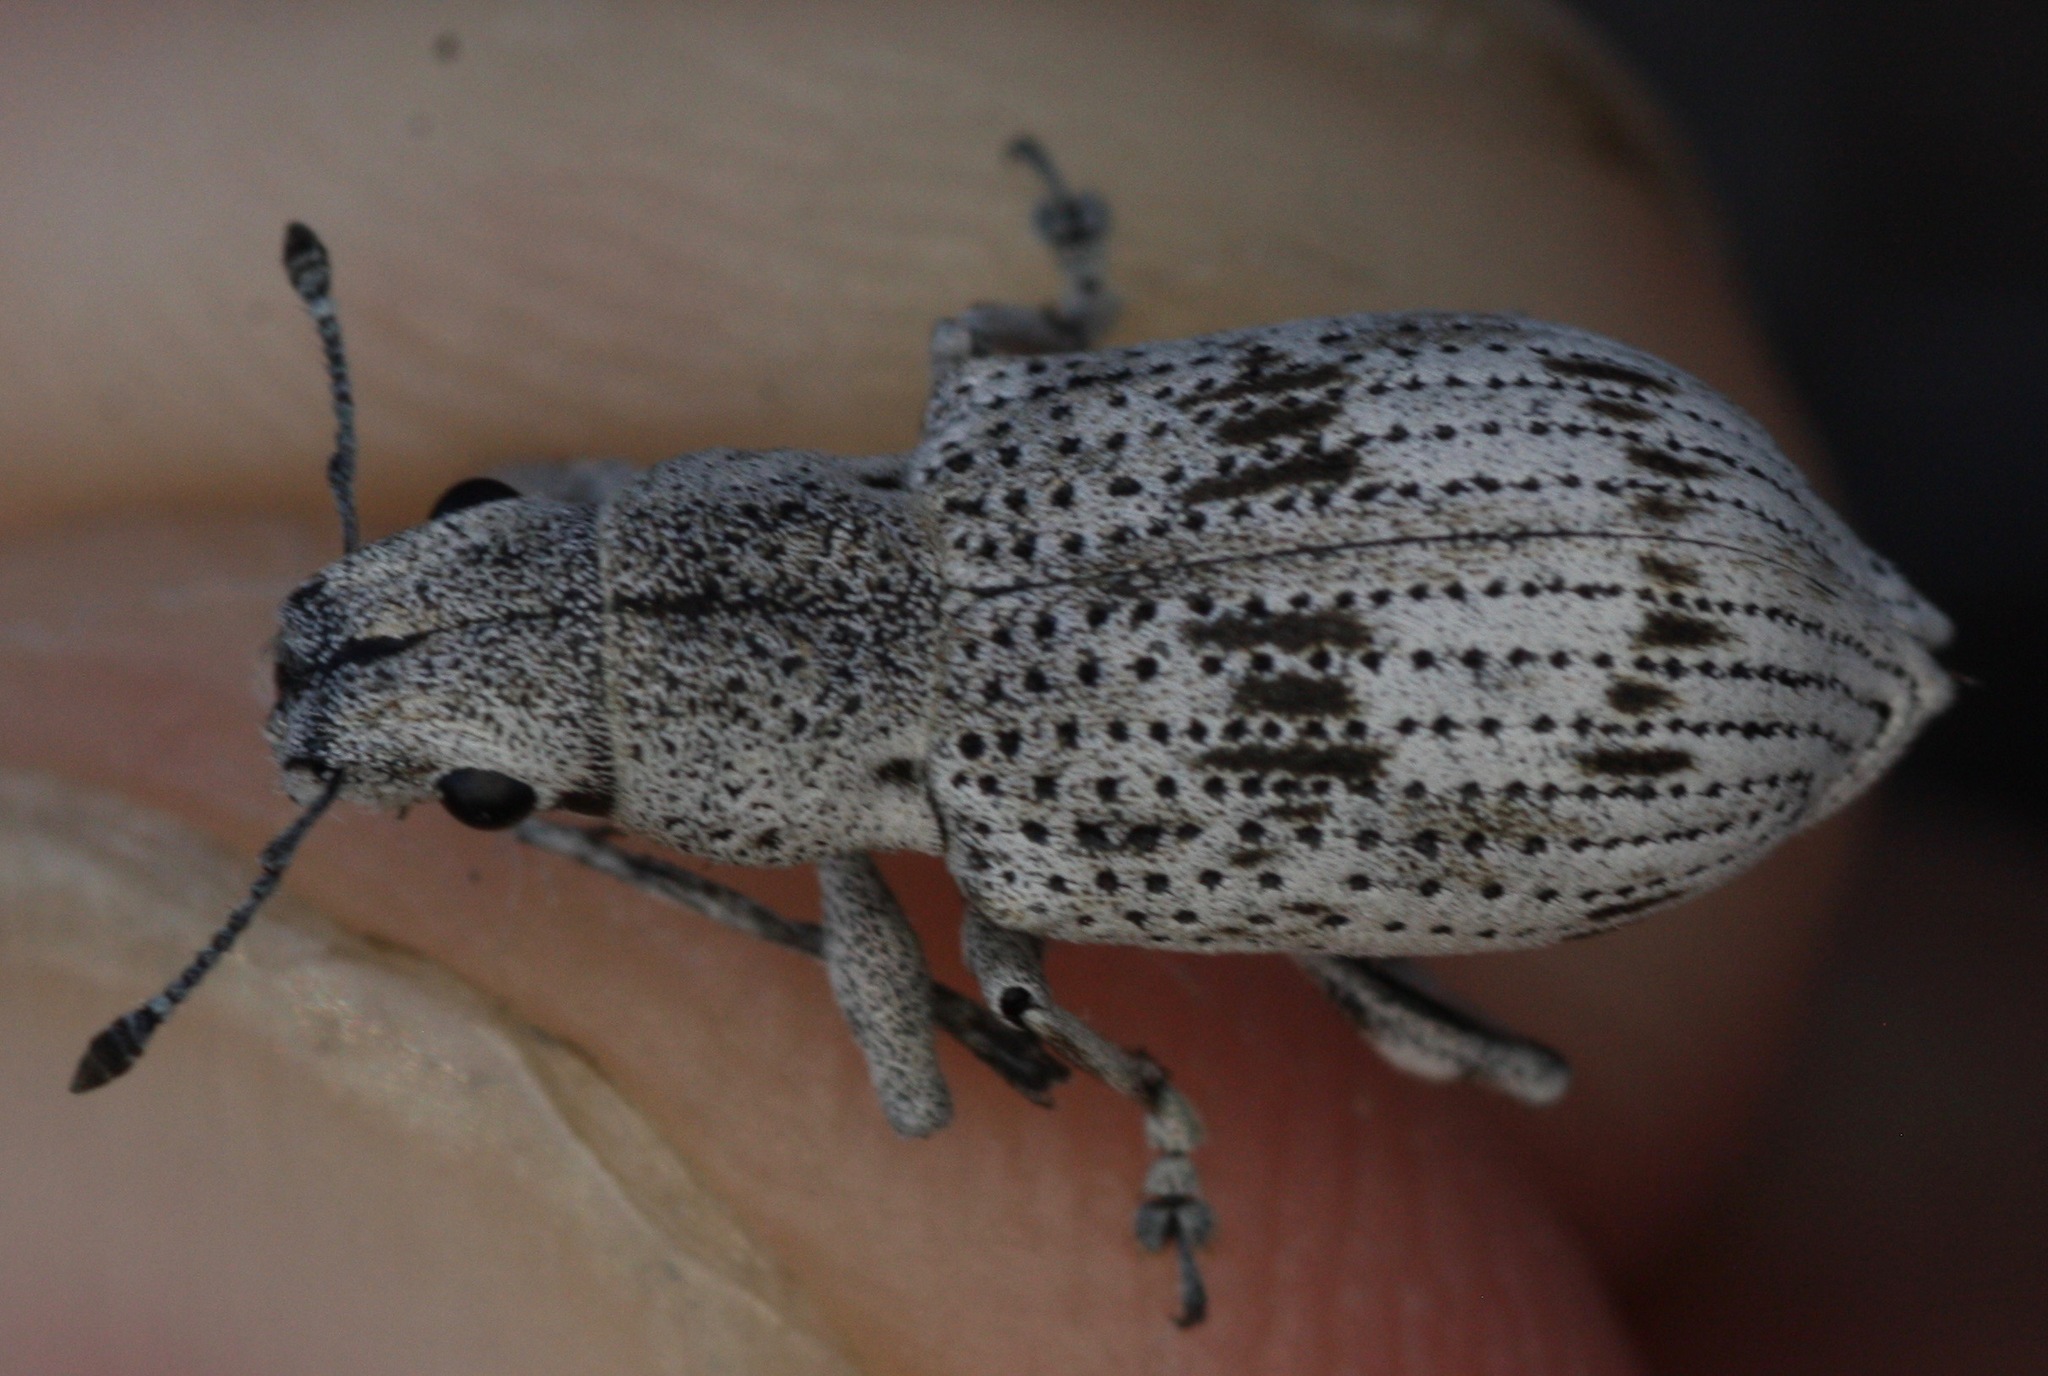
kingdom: Animalia
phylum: Arthropoda
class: Insecta
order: Coleoptera
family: Curculionidae
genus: Ericydeus
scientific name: Ericydeus lautus
